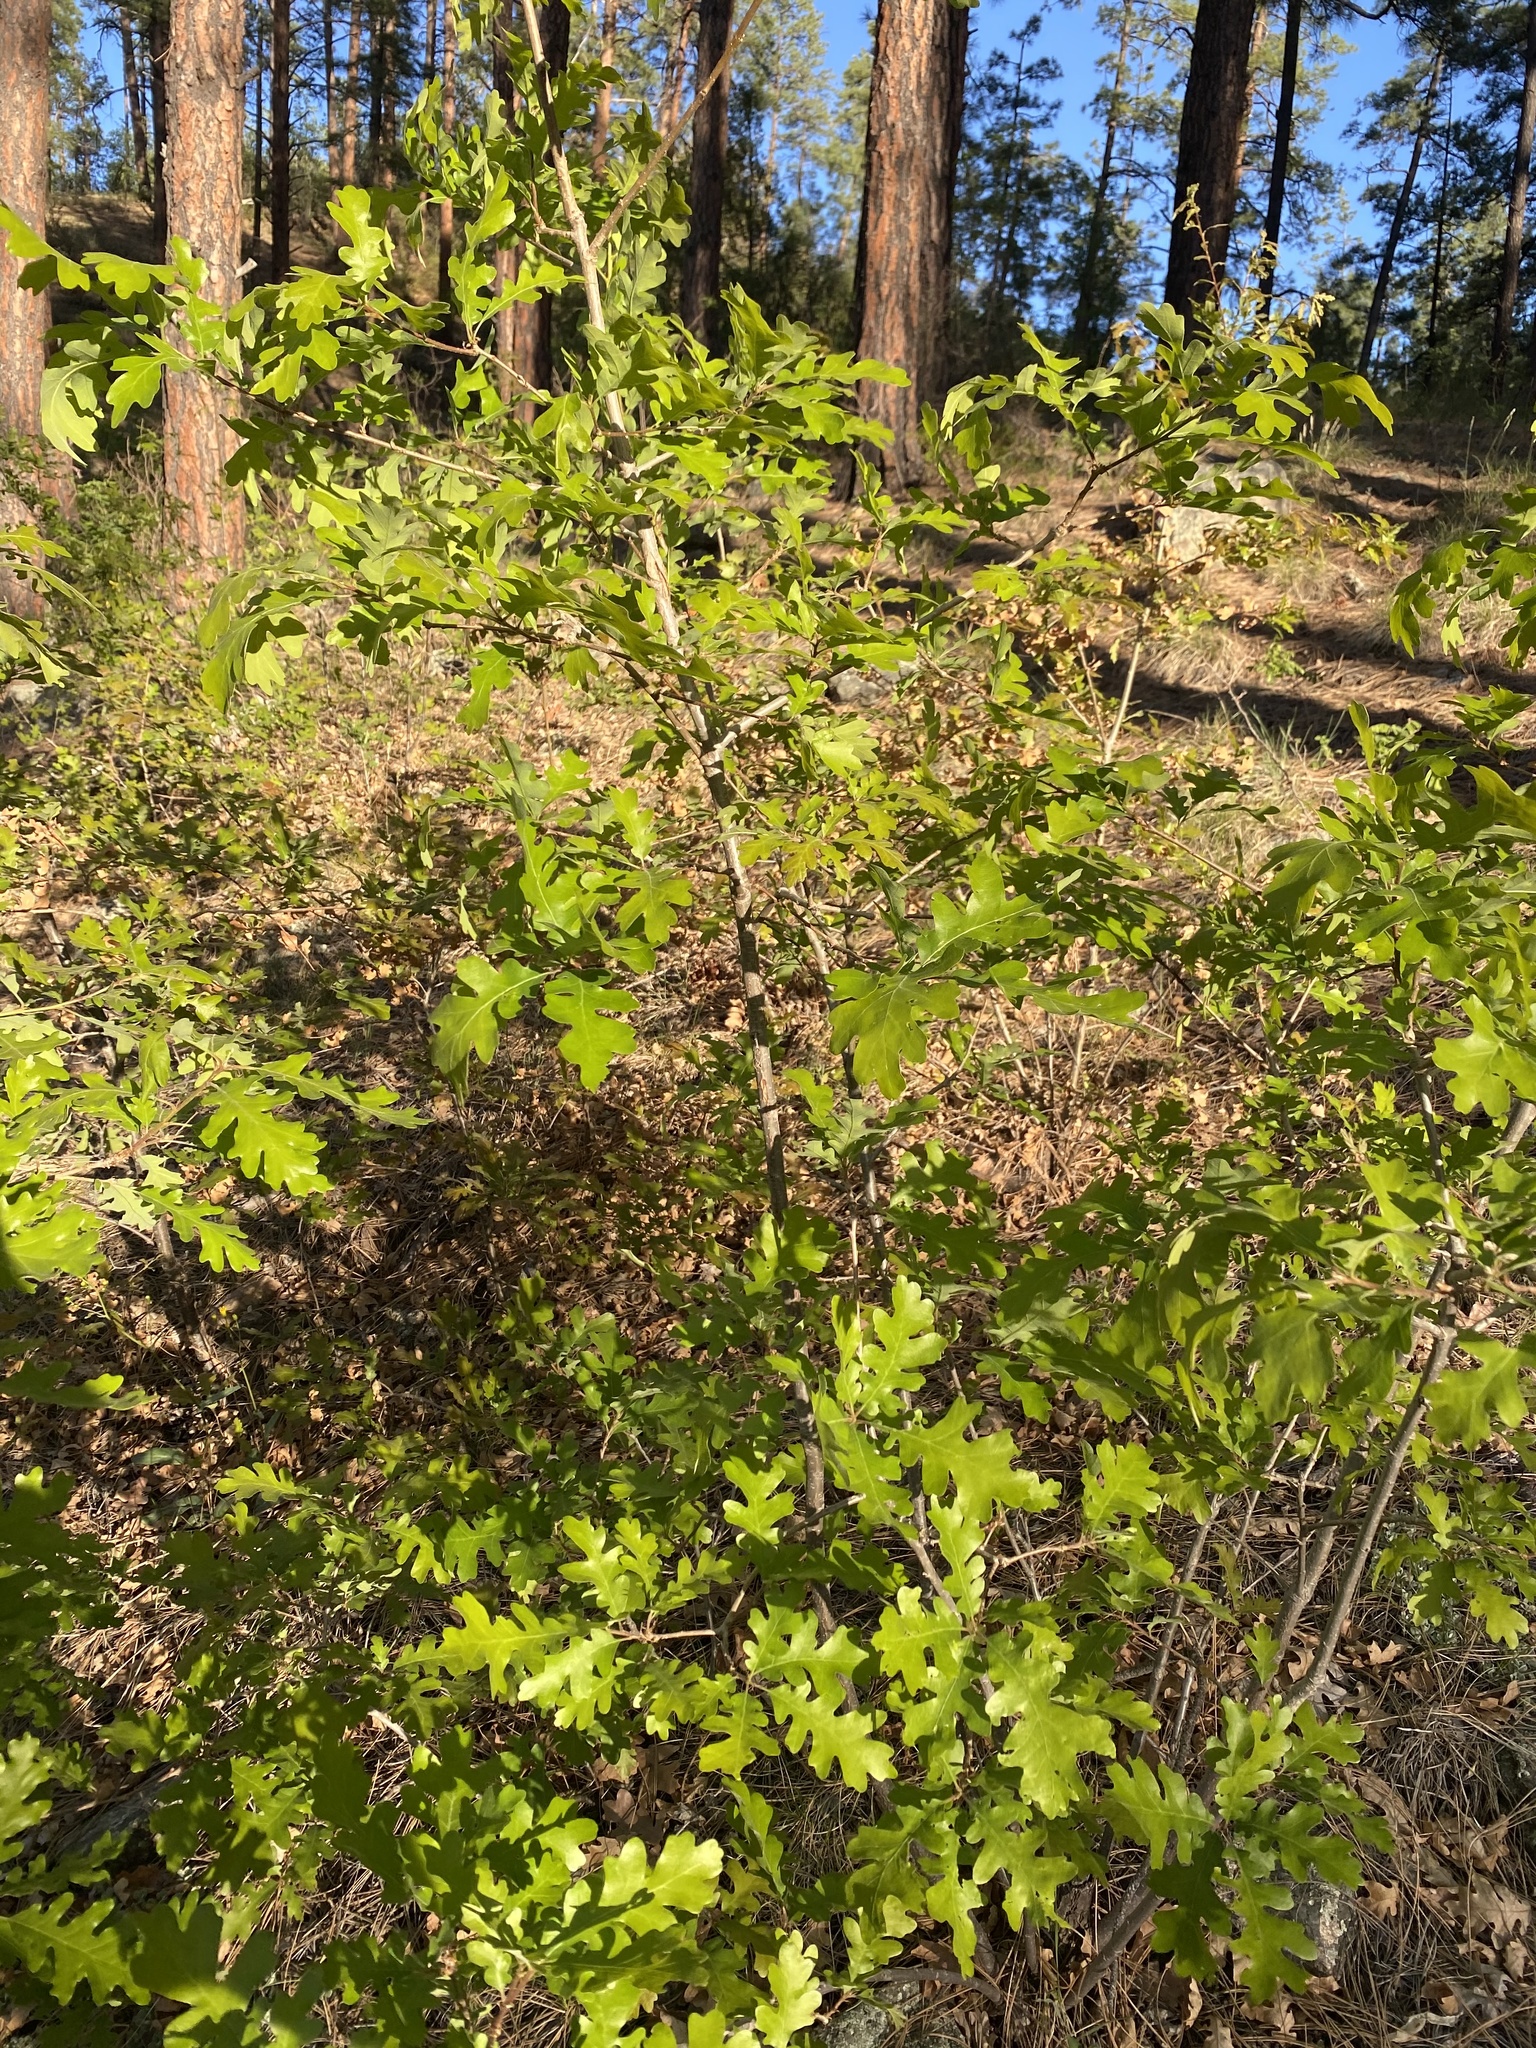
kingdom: Plantae
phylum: Tracheophyta
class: Magnoliopsida
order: Fagales
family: Fagaceae
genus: Quercus
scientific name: Quercus gambelii
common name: Gambel oak
